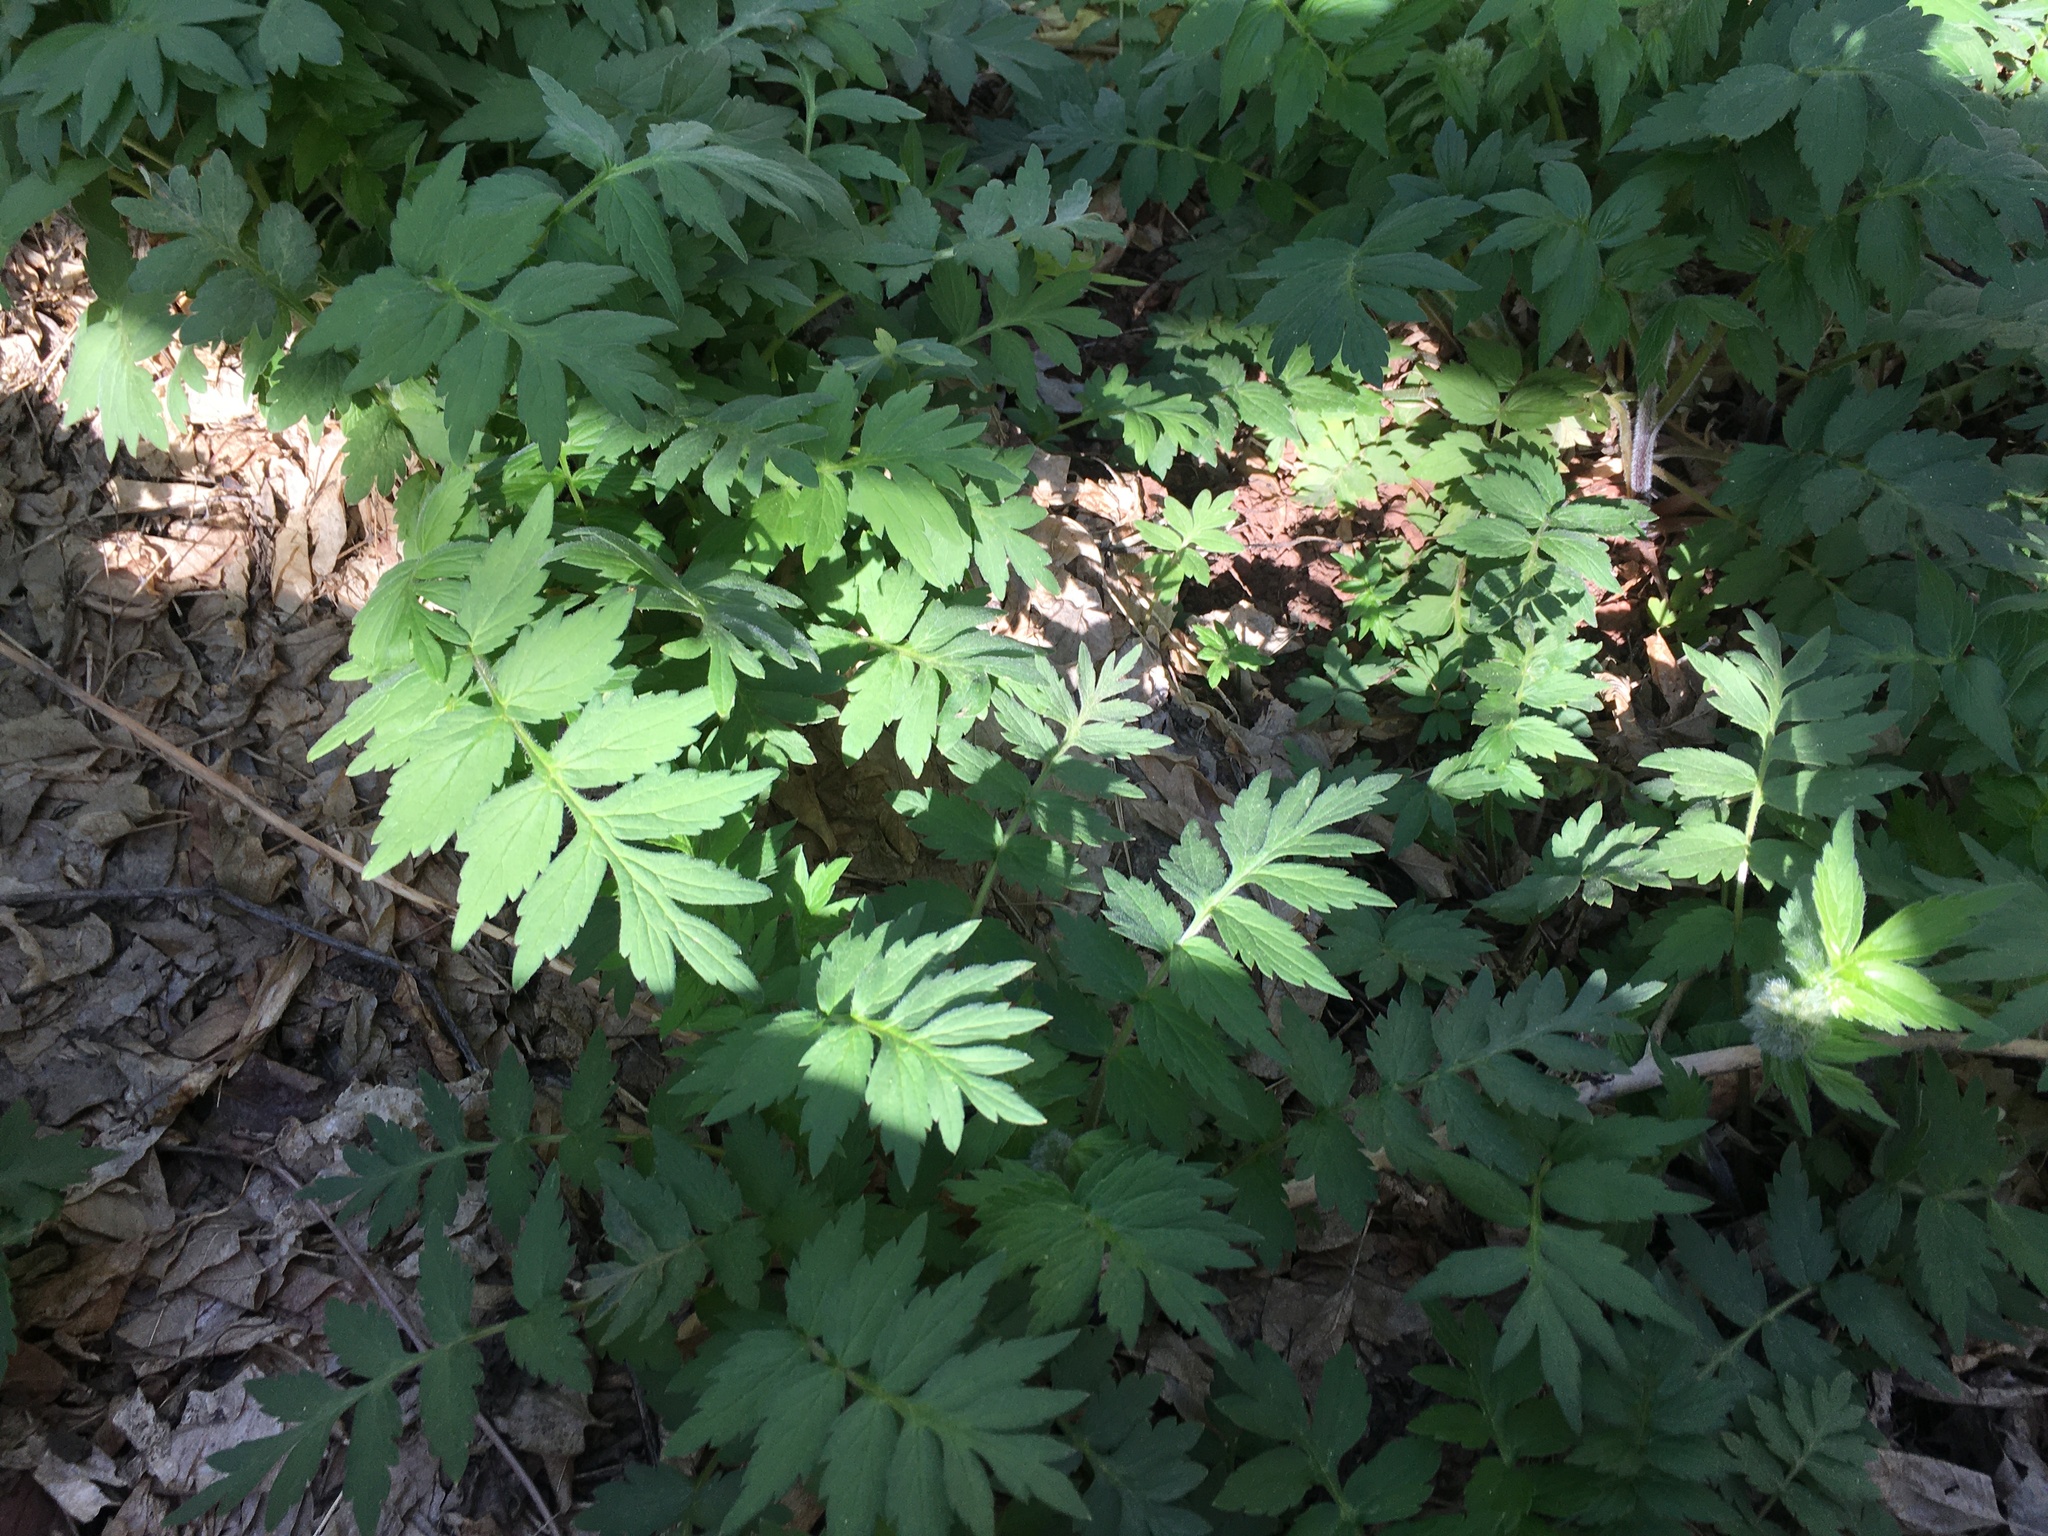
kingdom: Plantae
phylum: Tracheophyta
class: Magnoliopsida
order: Boraginales
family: Hydrophyllaceae
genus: Hydrophyllum
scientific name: Hydrophyllum fendleri
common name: Fendler's waterleaf
